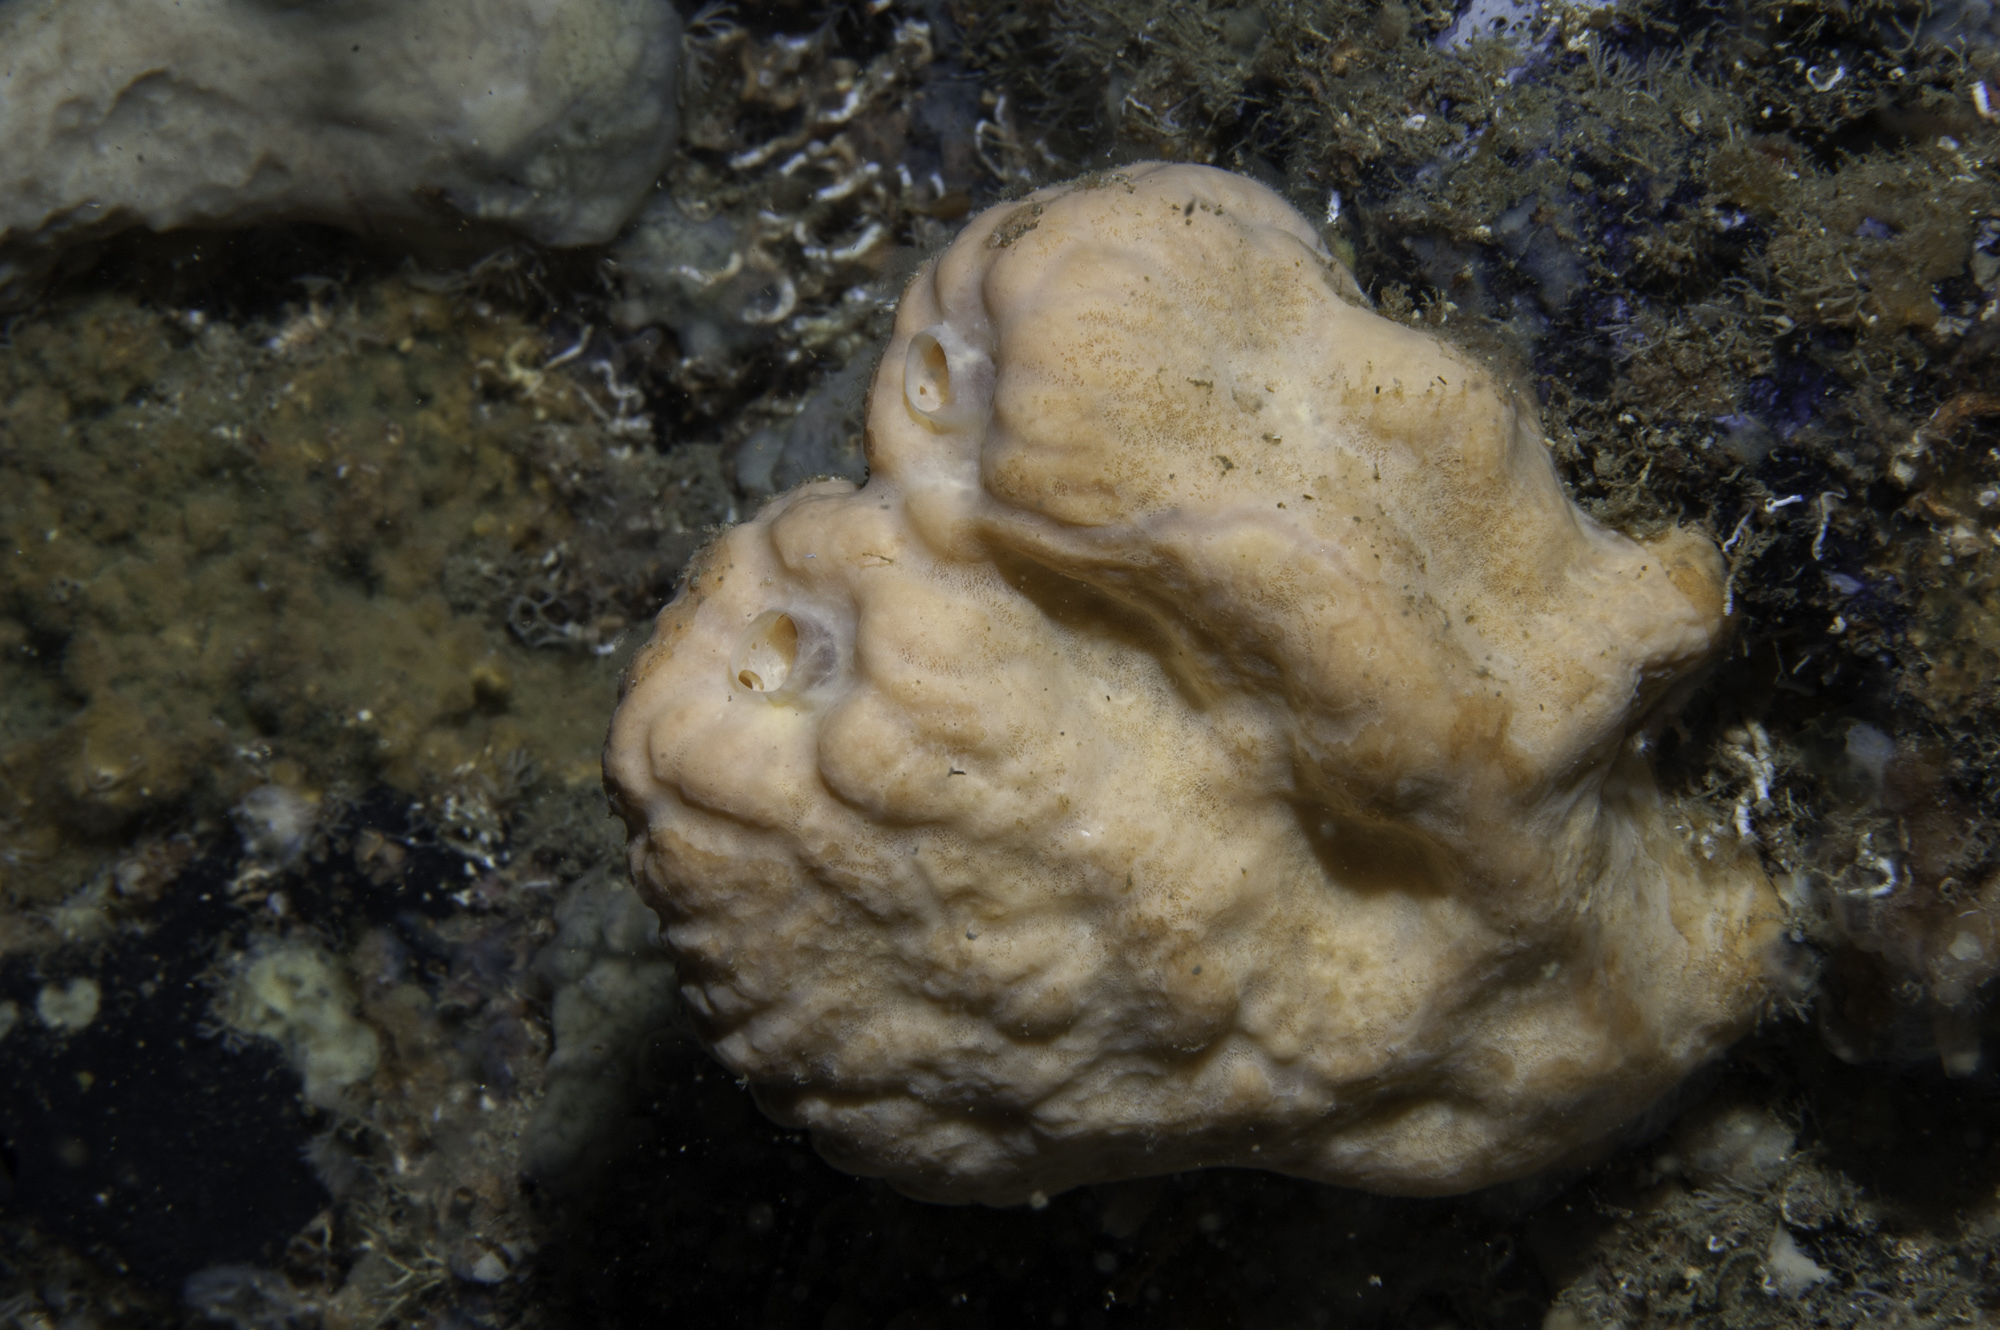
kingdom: Animalia
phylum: Porifera
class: Demospongiae
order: Agelasida
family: Agelasidae
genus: Agelas
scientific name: Agelas oroides
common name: Maltese sponge
